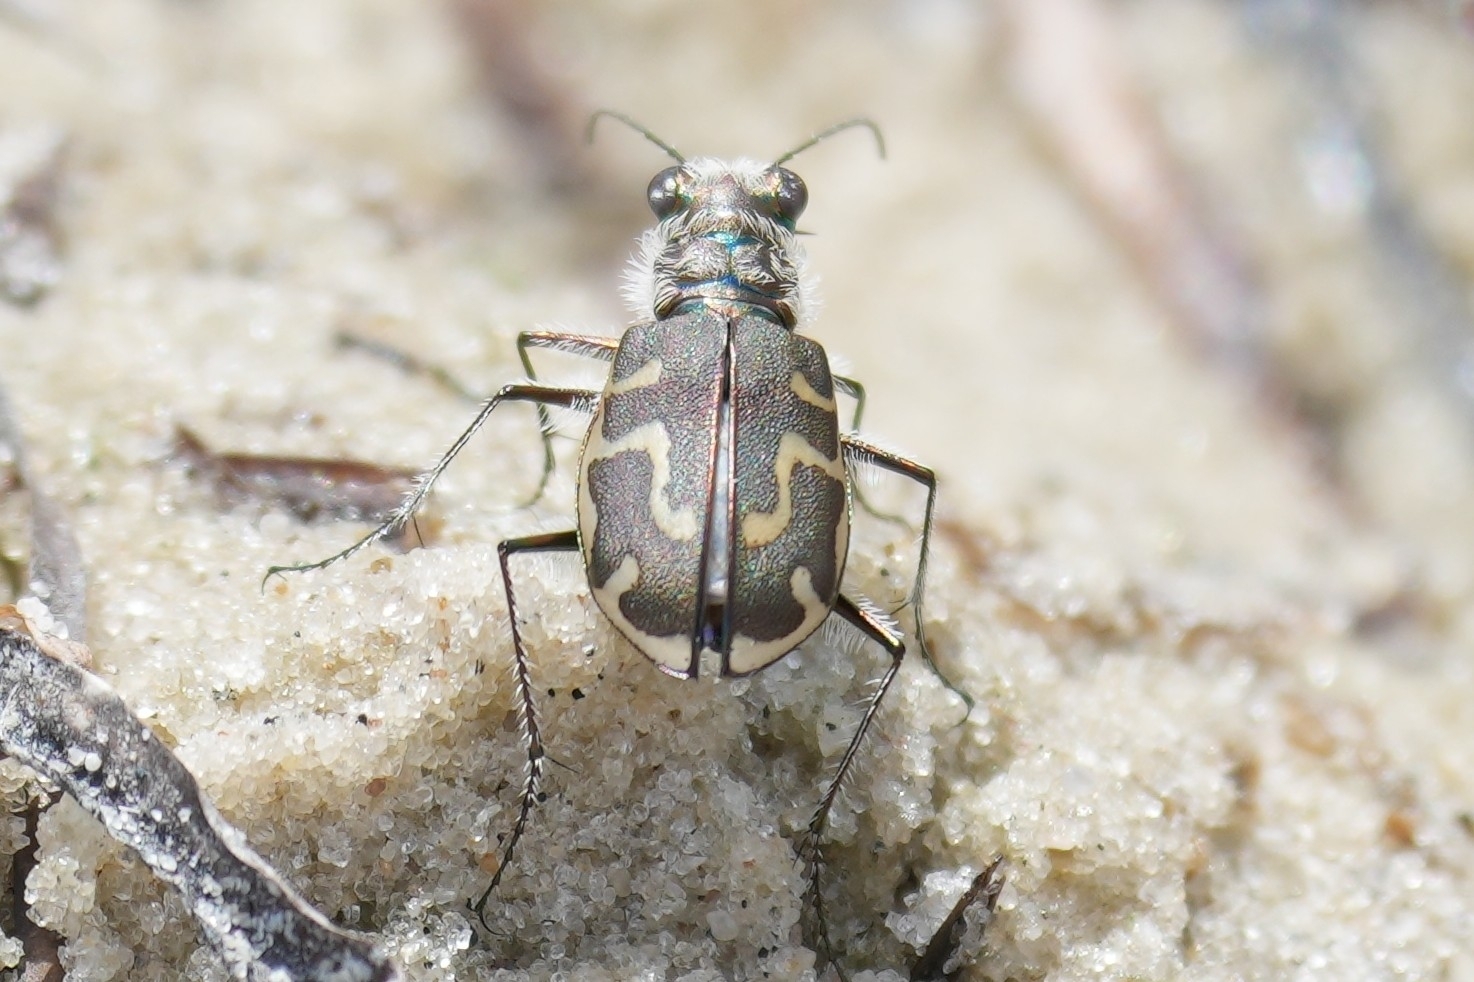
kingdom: Animalia
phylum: Arthropoda
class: Insecta
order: Coleoptera
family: Carabidae
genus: Cicindela
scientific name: Cicindela hirticollis
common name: Hairy-necked tiger beetle
